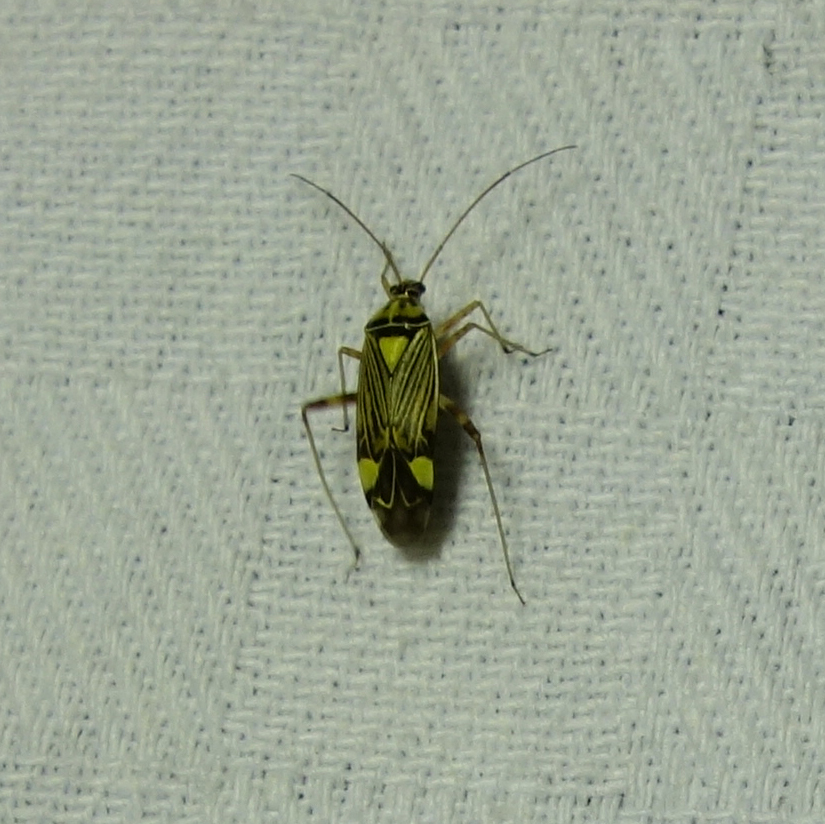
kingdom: Animalia
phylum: Arthropoda
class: Insecta
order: Hemiptera
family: Miridae
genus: Rhabdomiris
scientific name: Rhabdomiris striatellus
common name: Plant bug
